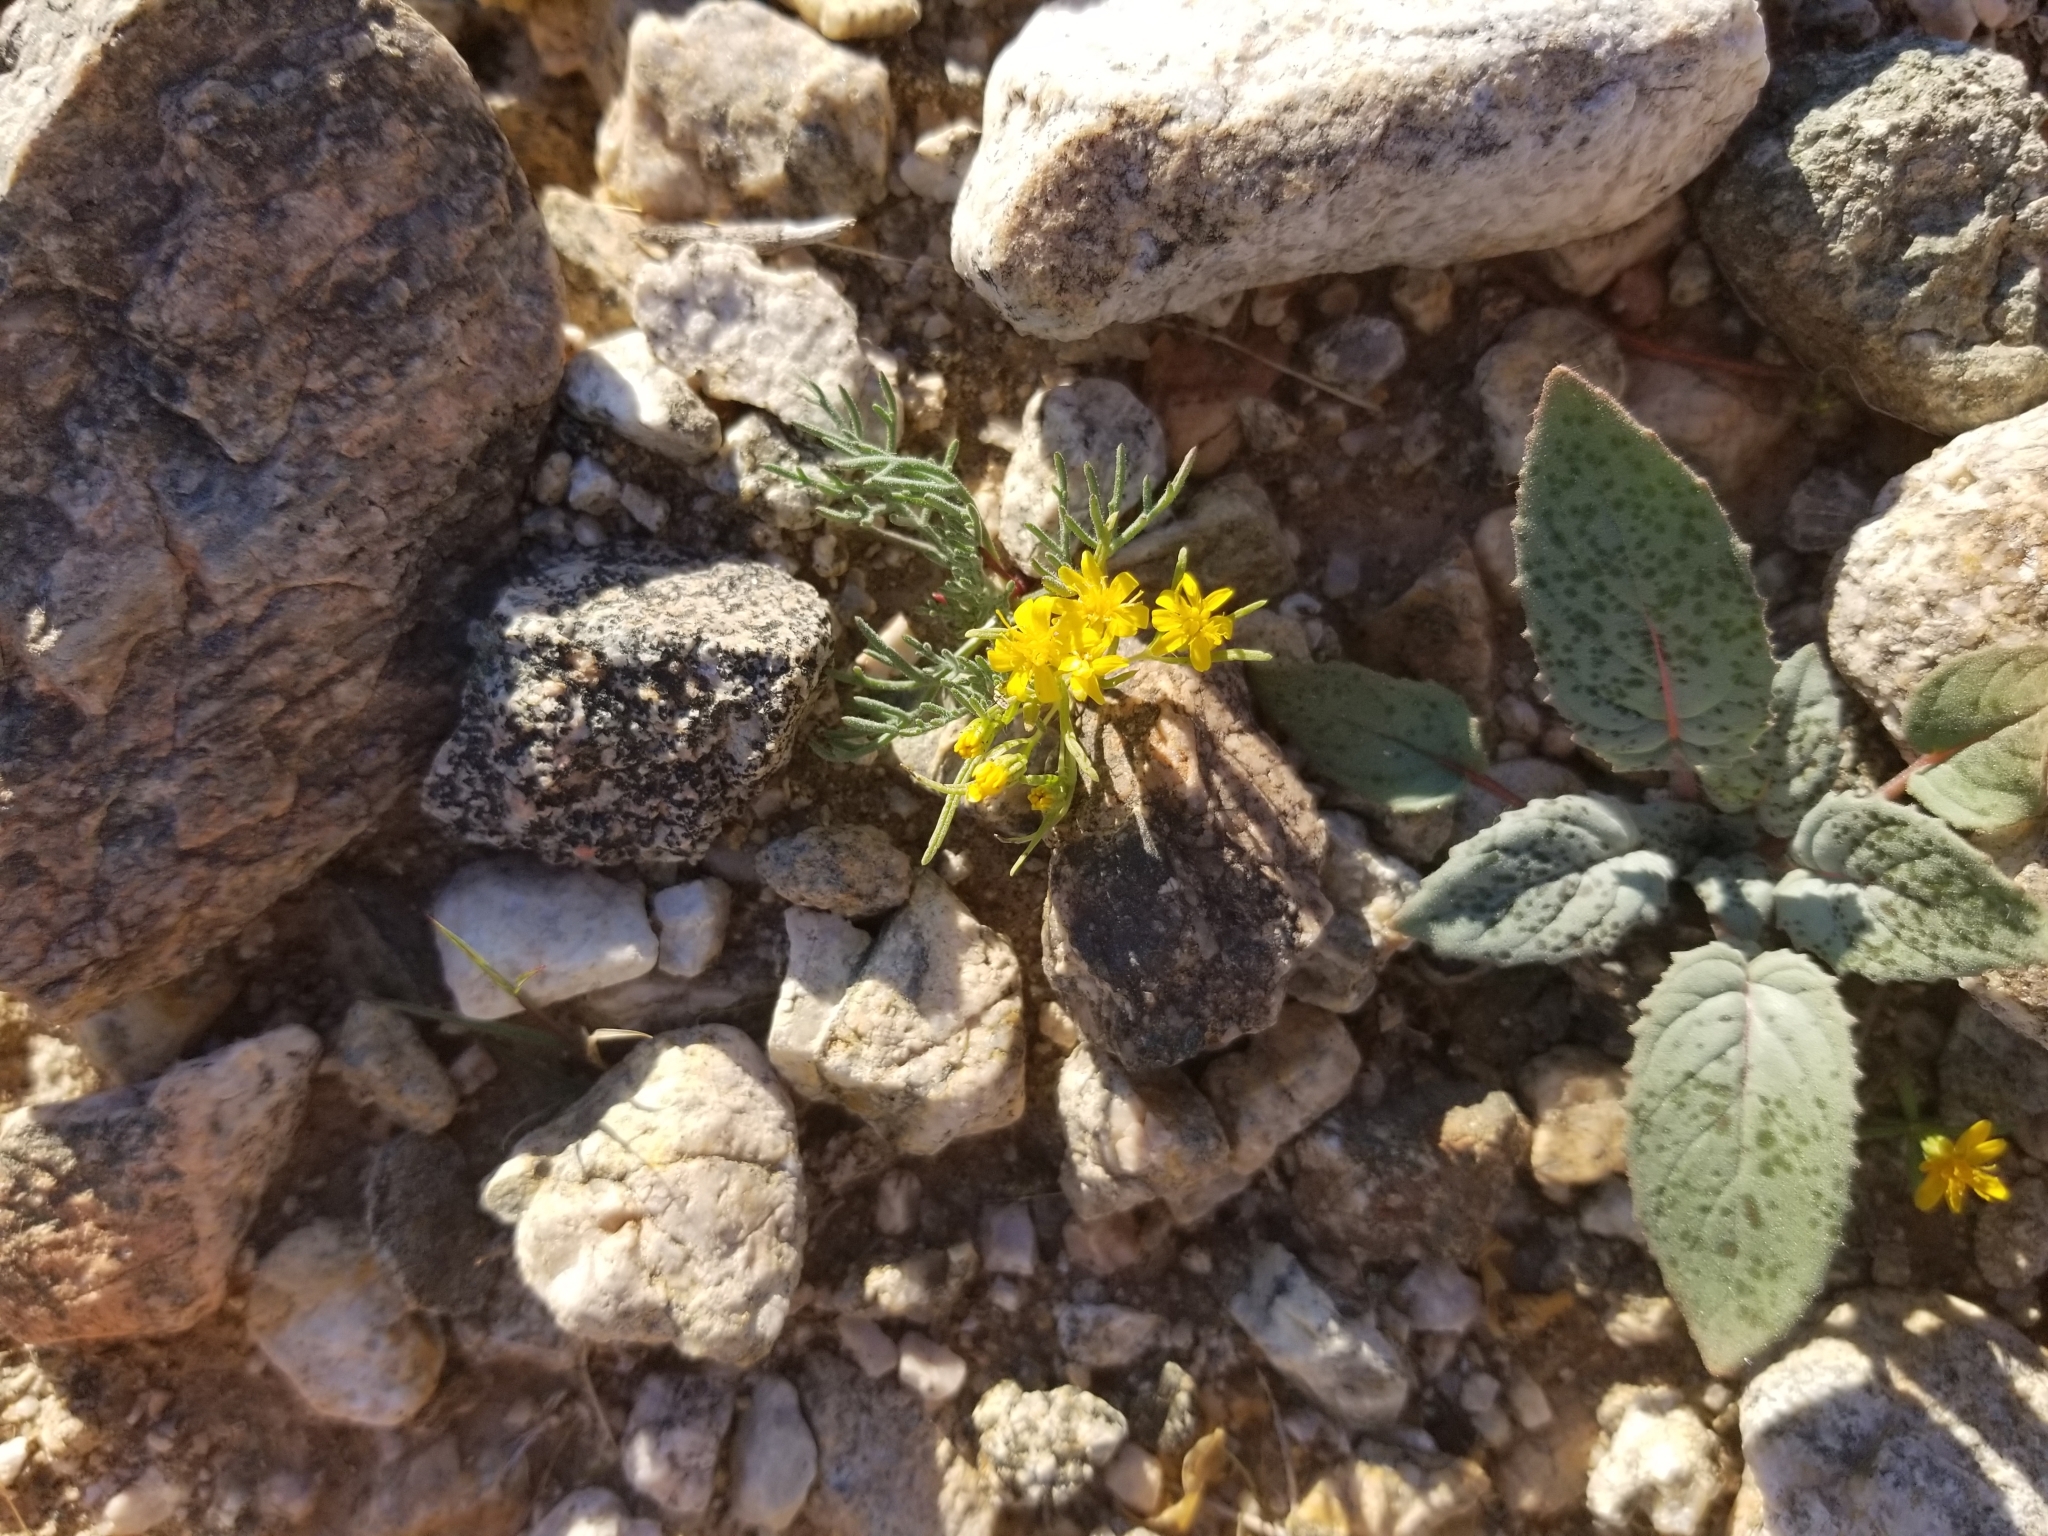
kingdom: Plantae
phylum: Tracheophyta
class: Magnoliopsida
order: Asterales
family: Asteraceae
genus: Pectis
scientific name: Pectis papposa
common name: Many-bristle chinchweed
